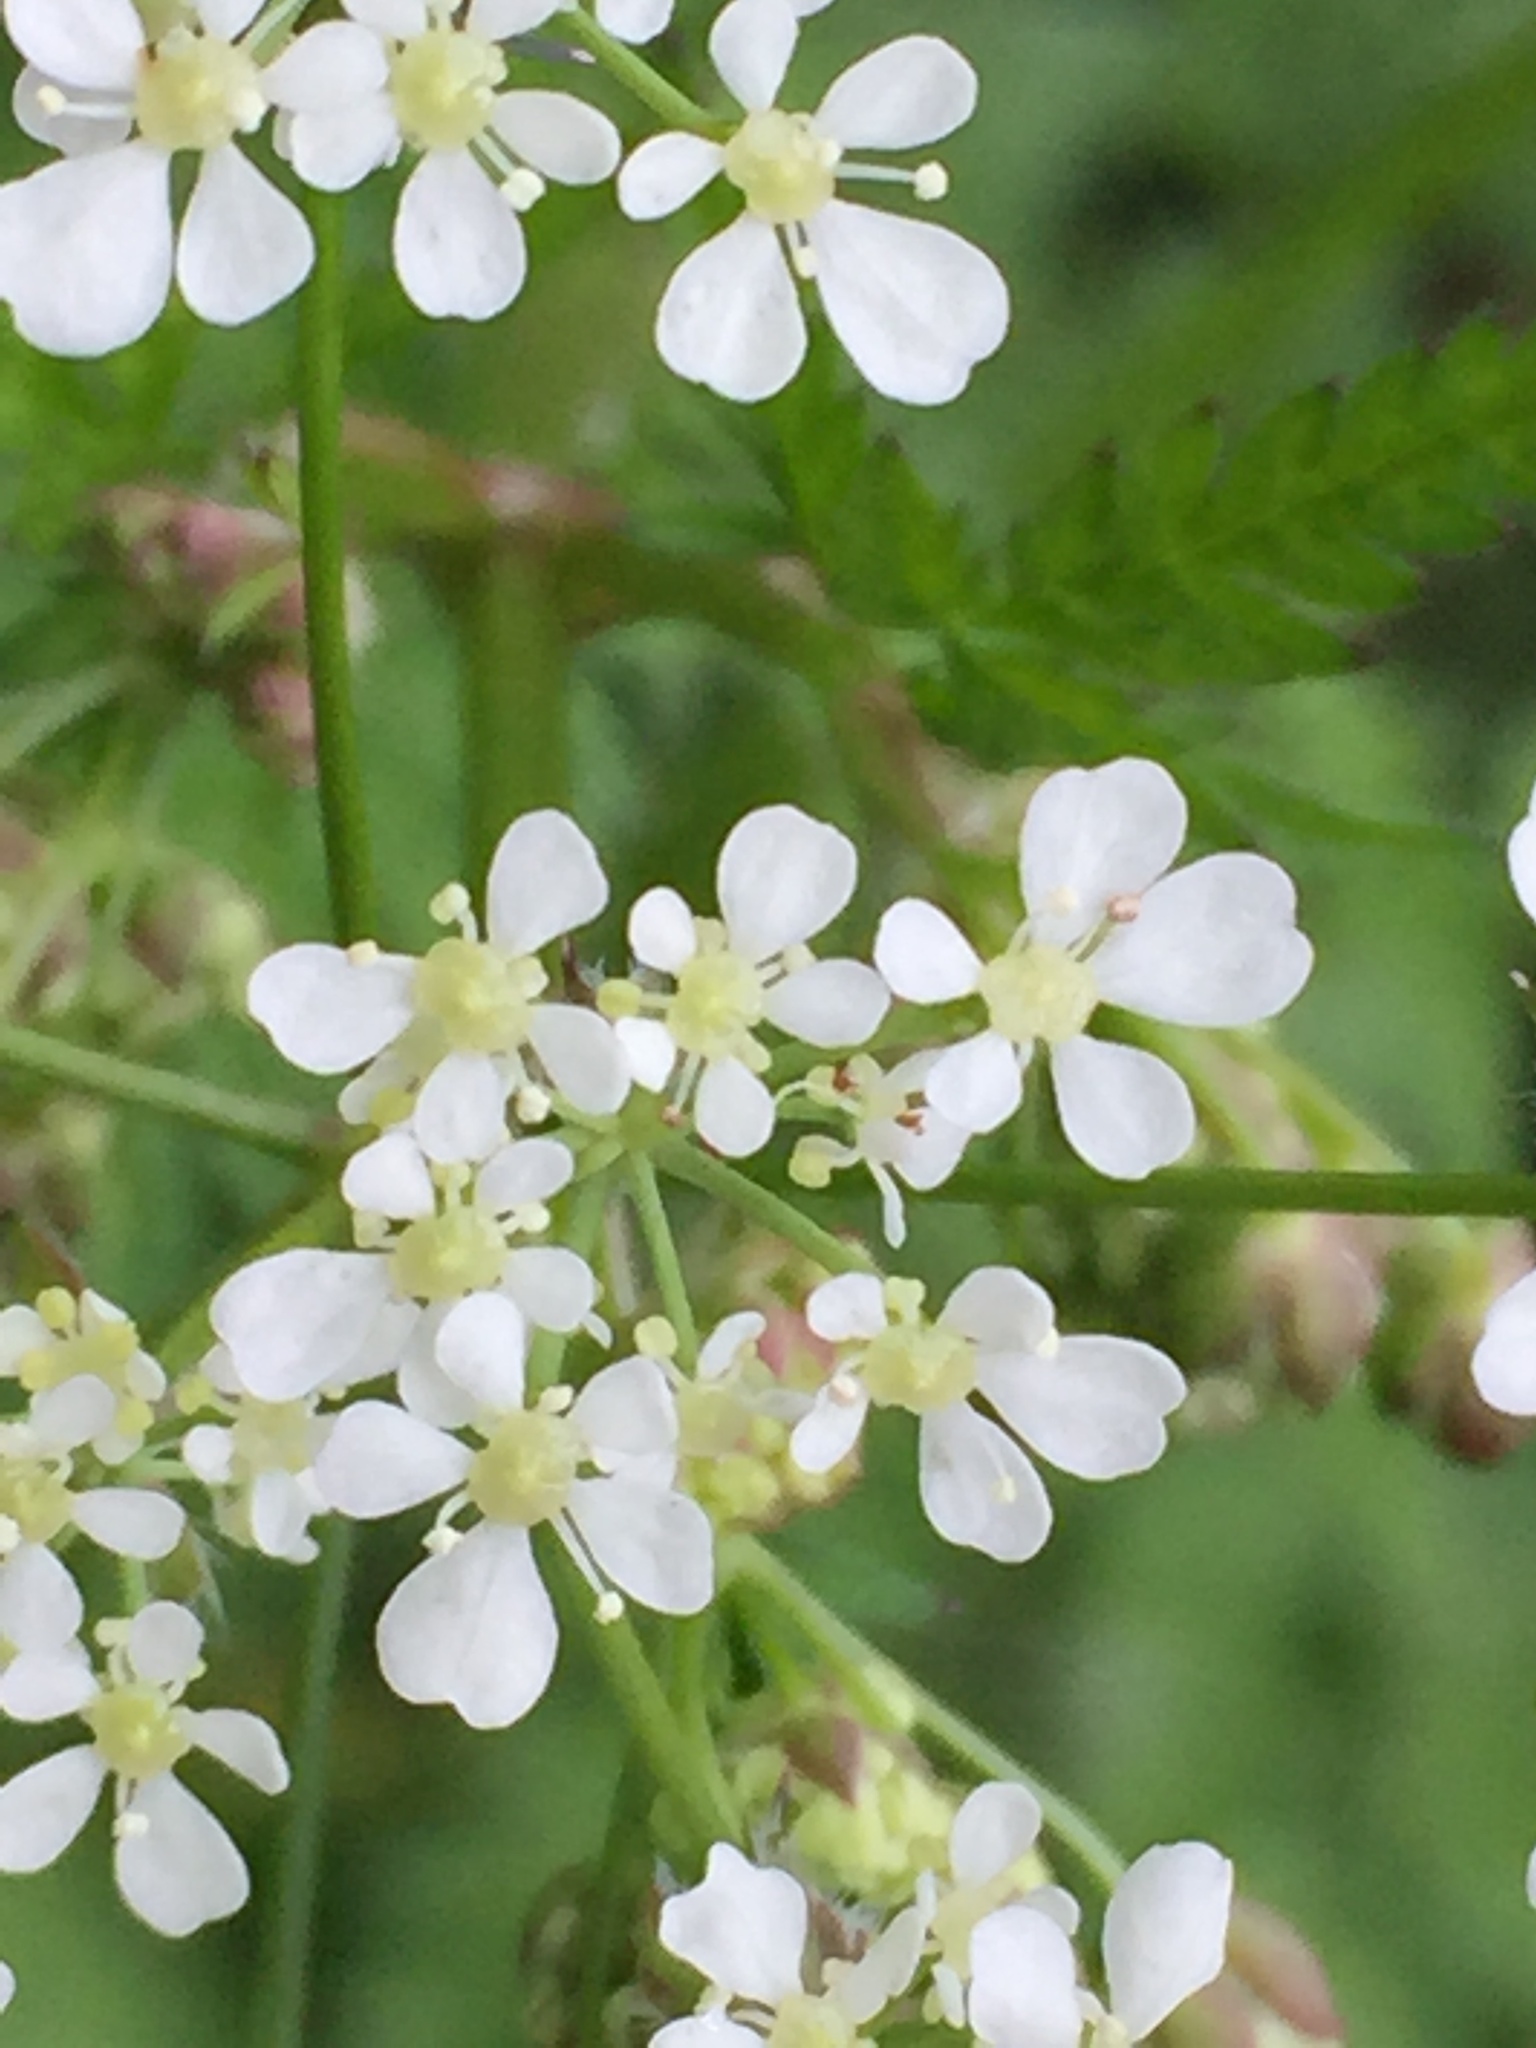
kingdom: Plantae
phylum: Tracheophyta
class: Magnoliopsida
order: Apiales
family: Apiaceae
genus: Anthriscus
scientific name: Anthriscus sylvestris
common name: Cow parsley
